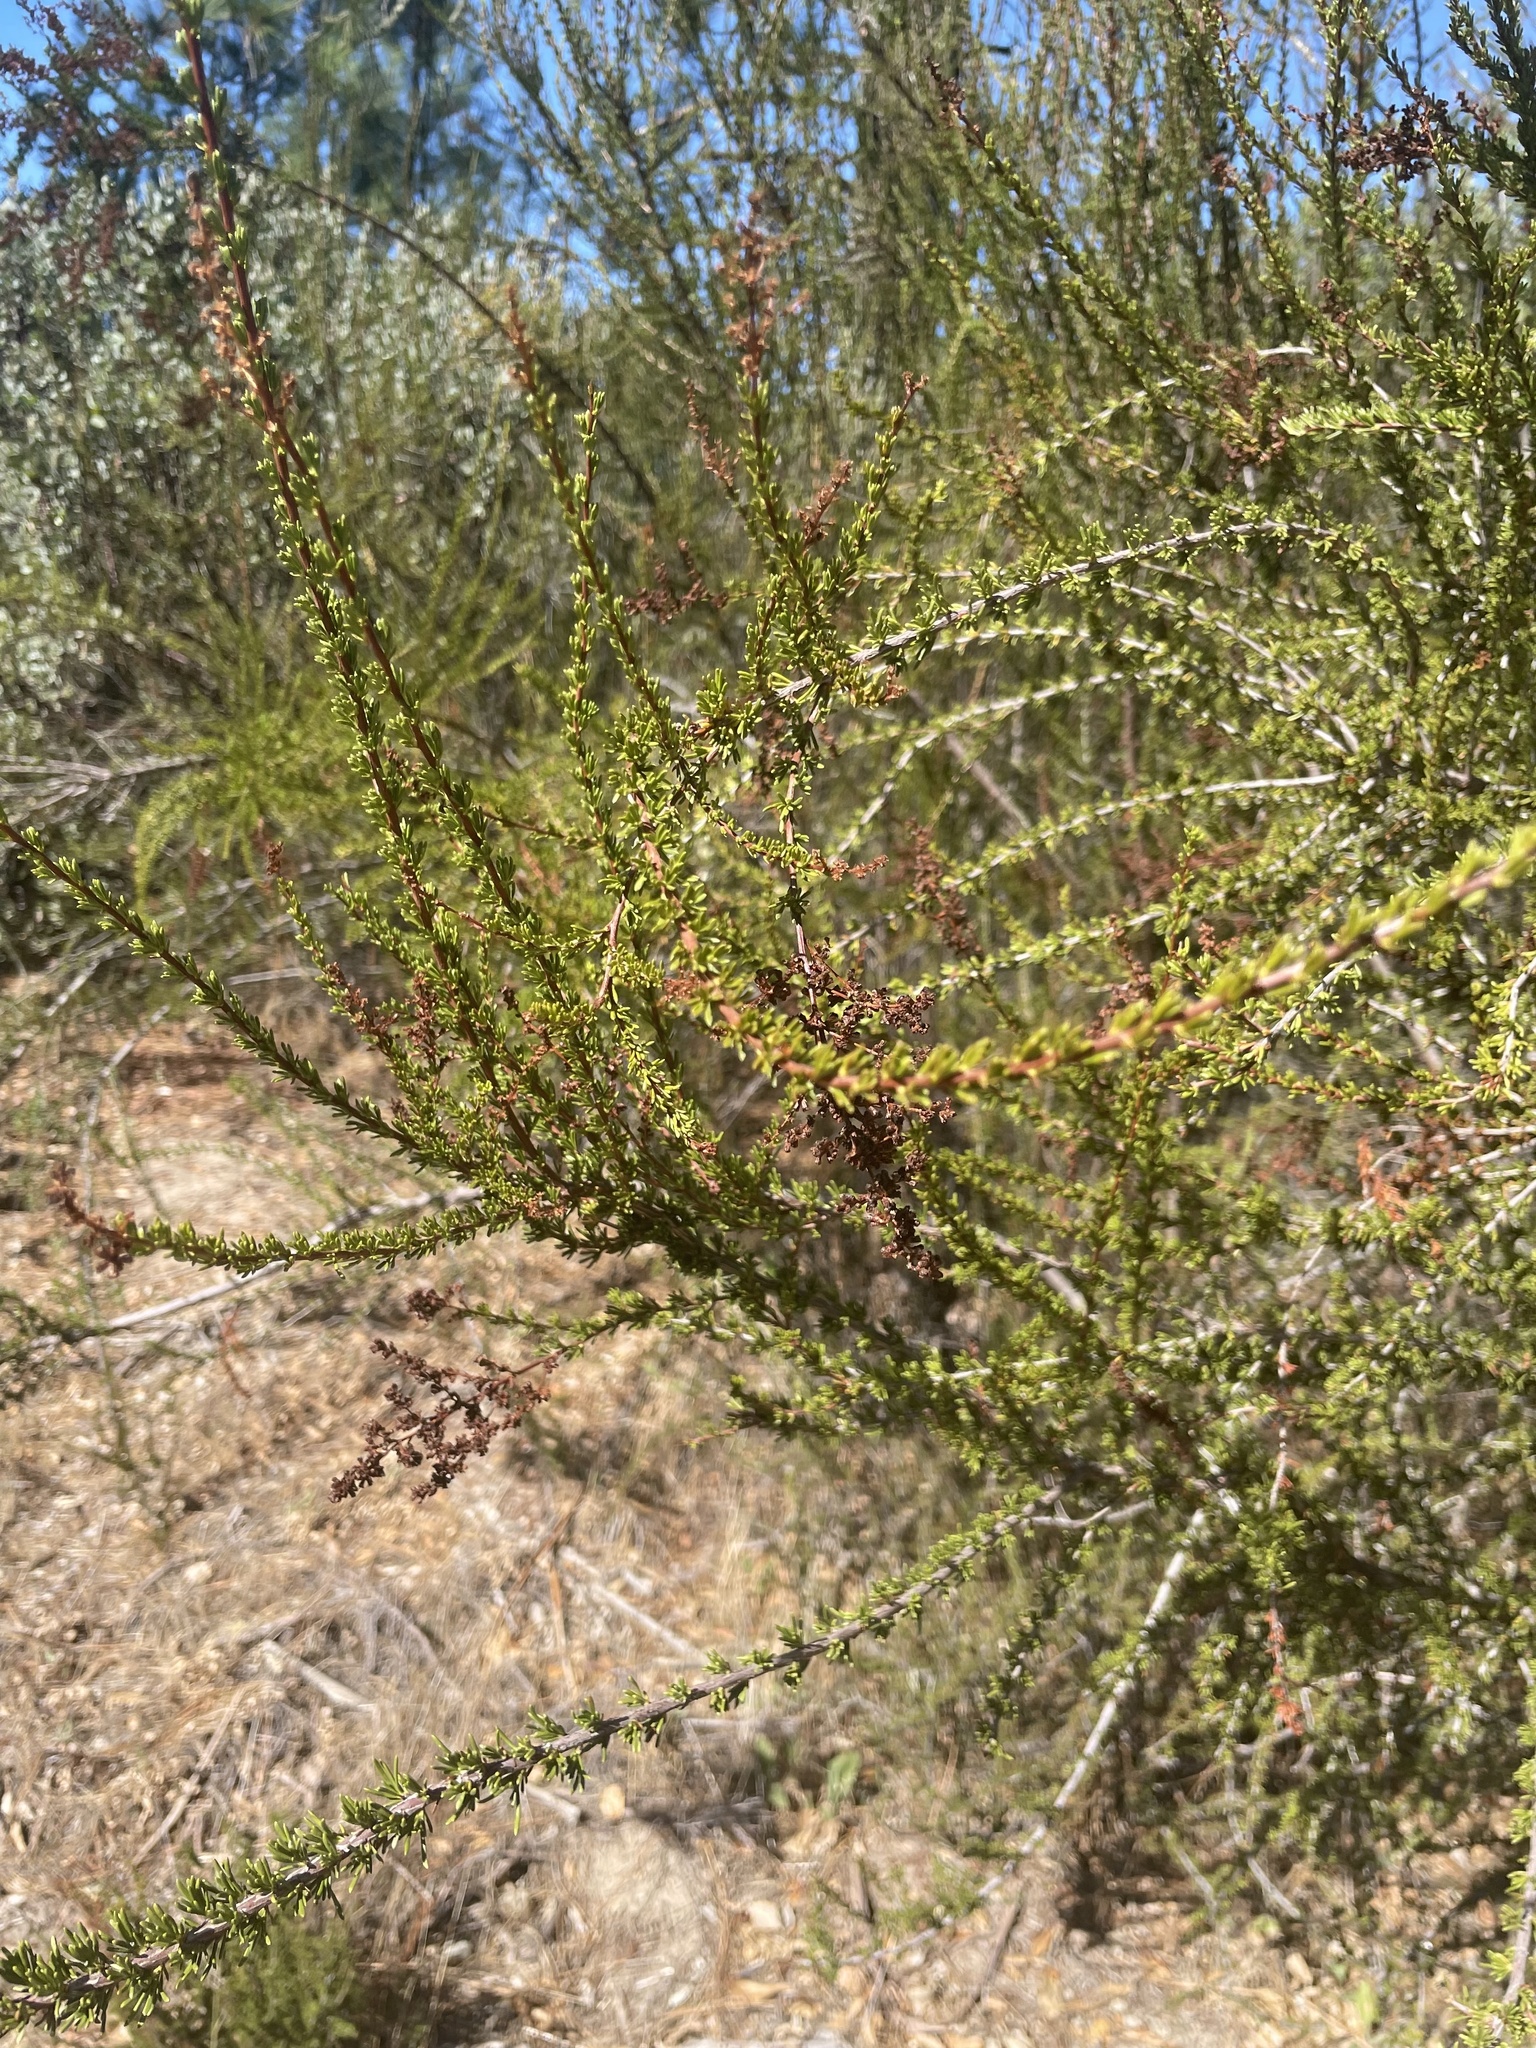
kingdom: Plantae
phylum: Tracheophyta
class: Magnoliopsida
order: Rosales
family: Rosaceae
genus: Adenostoma
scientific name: Adenostoma fasciculatum
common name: Chamise
